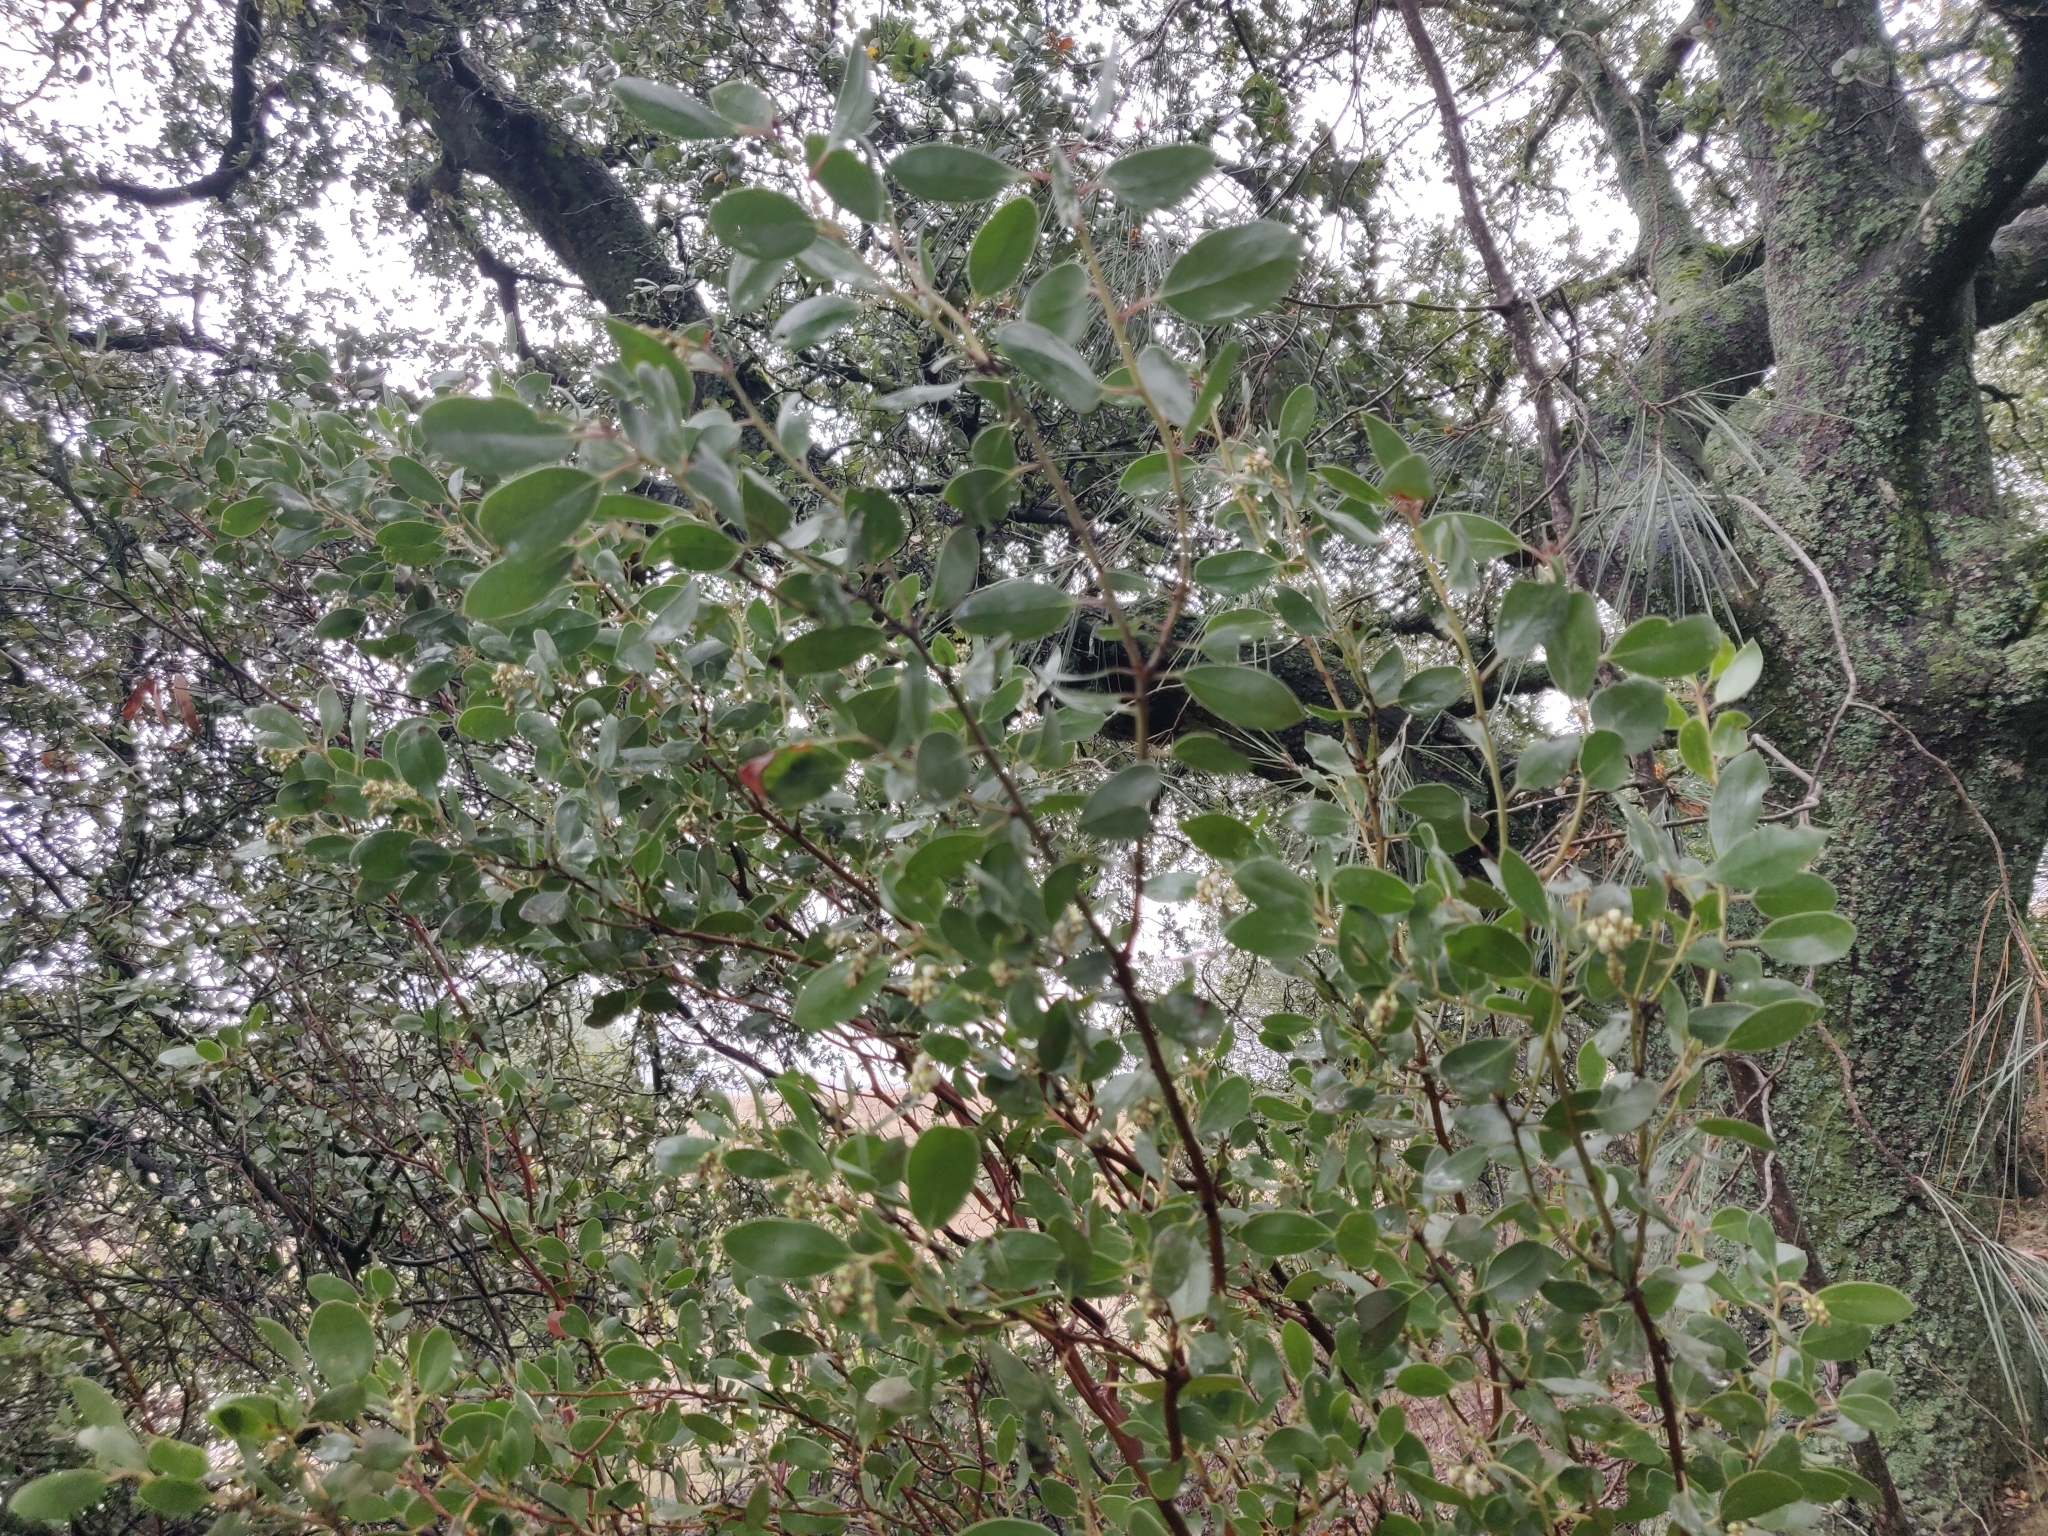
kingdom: Plantae
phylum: Tracheophyta
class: Magnoliopsida
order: Ericales
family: Ericaceae
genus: Arctostaphylos
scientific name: Arctostaphylos manzanita
